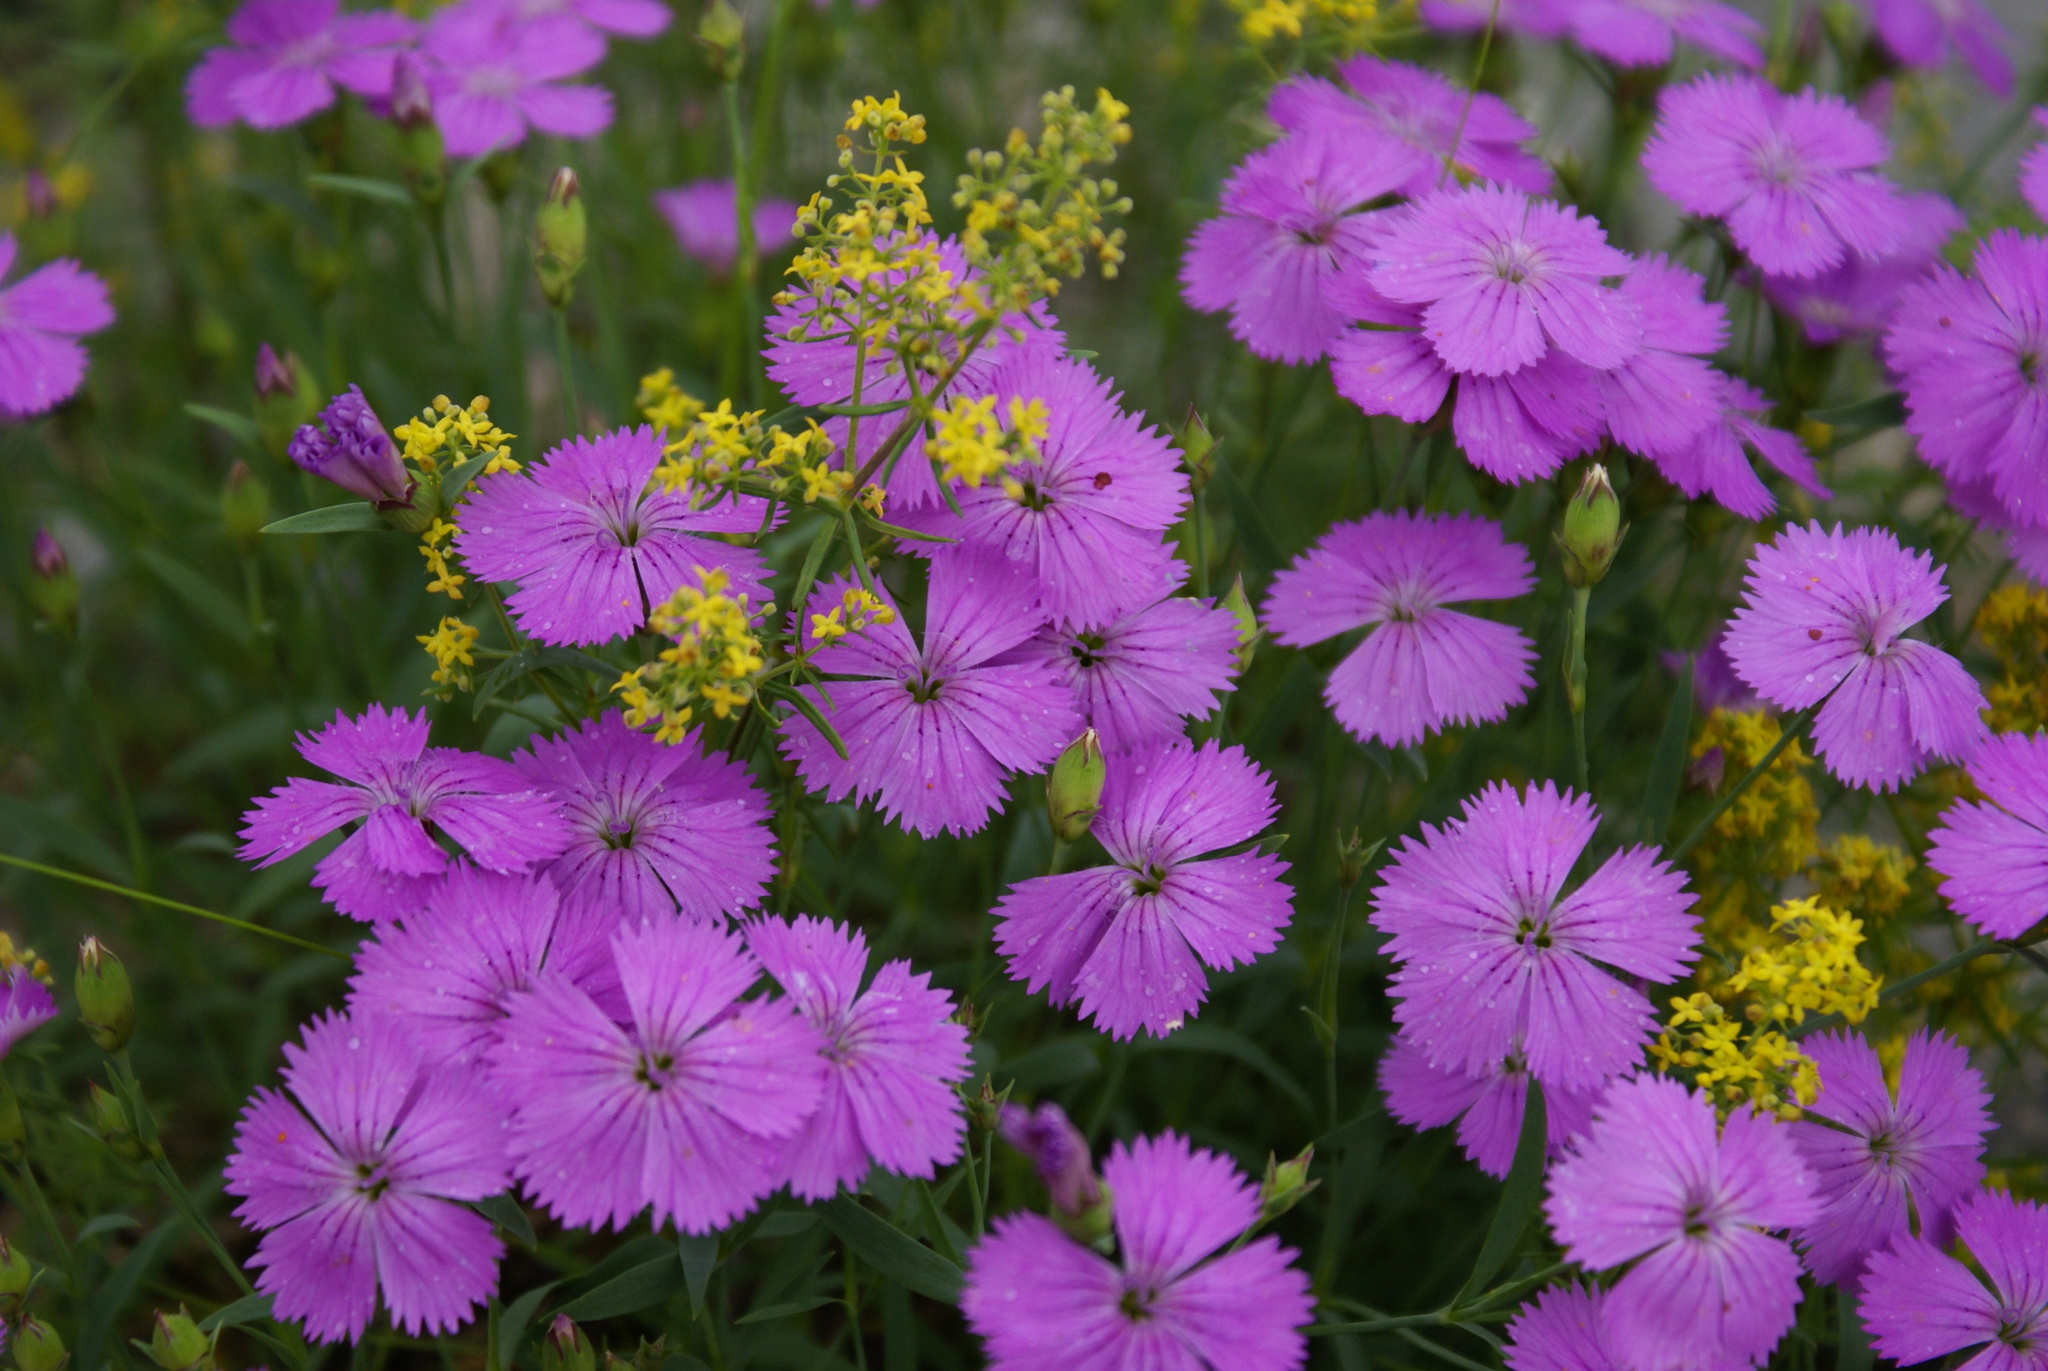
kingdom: Plantae
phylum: Tracheophyta
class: Magnoliopsida
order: Caryophyllales
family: Caryophyllaceae
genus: Dianthus
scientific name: Dianthus repens
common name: Northern pink
